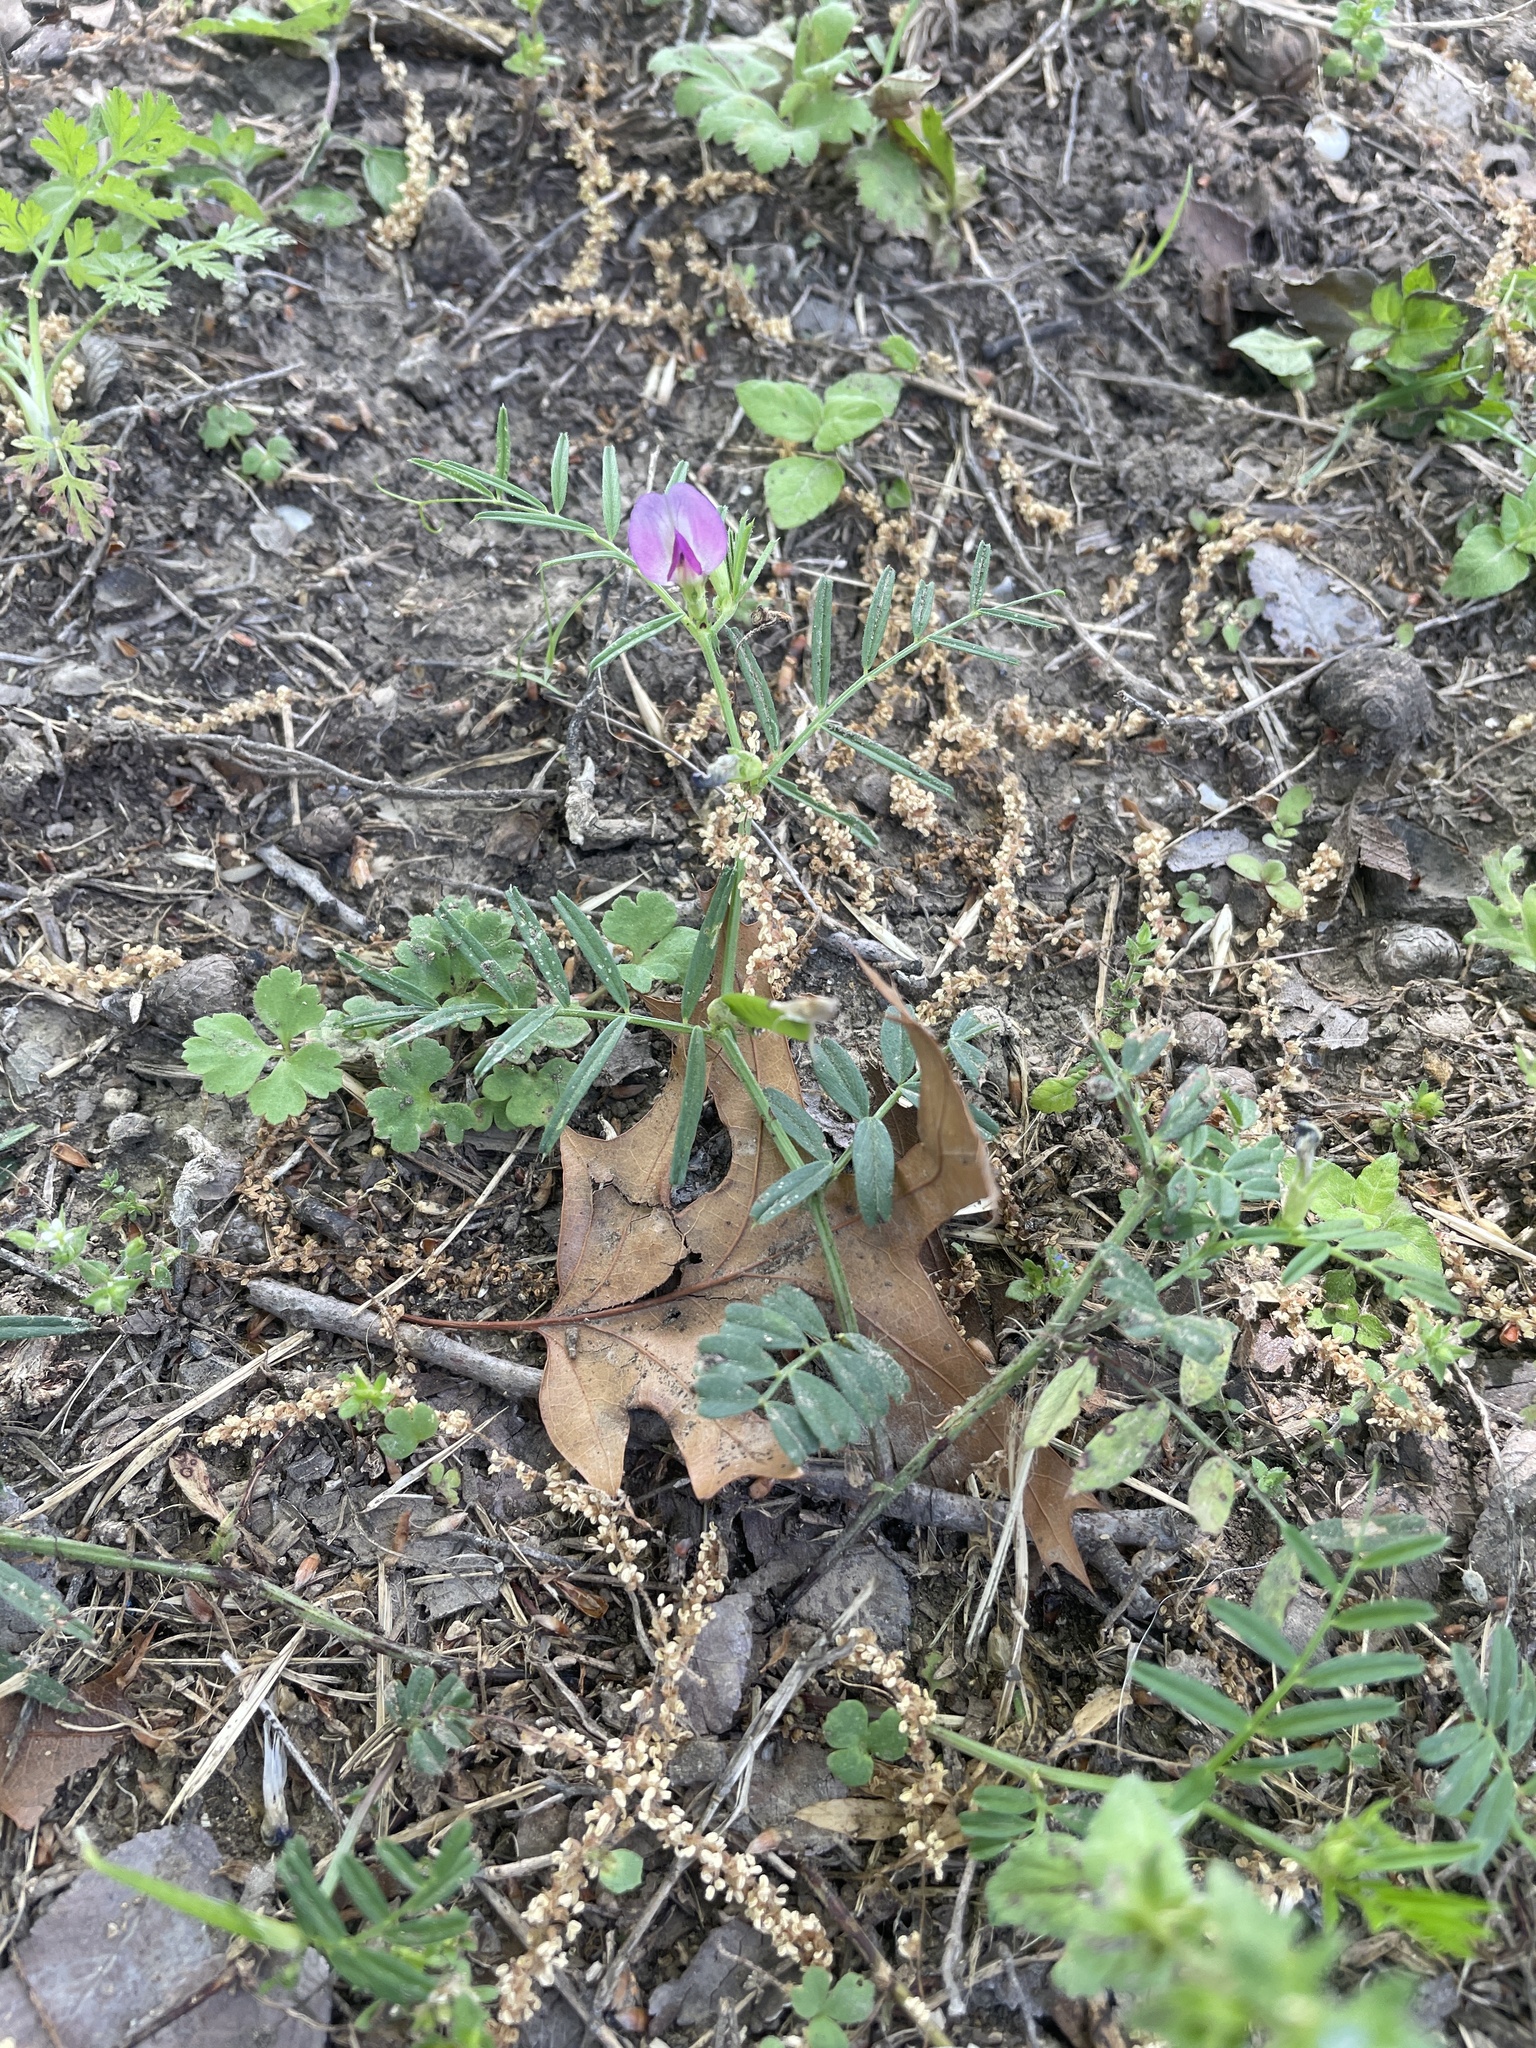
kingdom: Plantae
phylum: Tracheophyta
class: Magnoliopsida
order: Fabales
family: Fabaceae
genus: Vicia
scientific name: Vicia sativa
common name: Garden vetch
